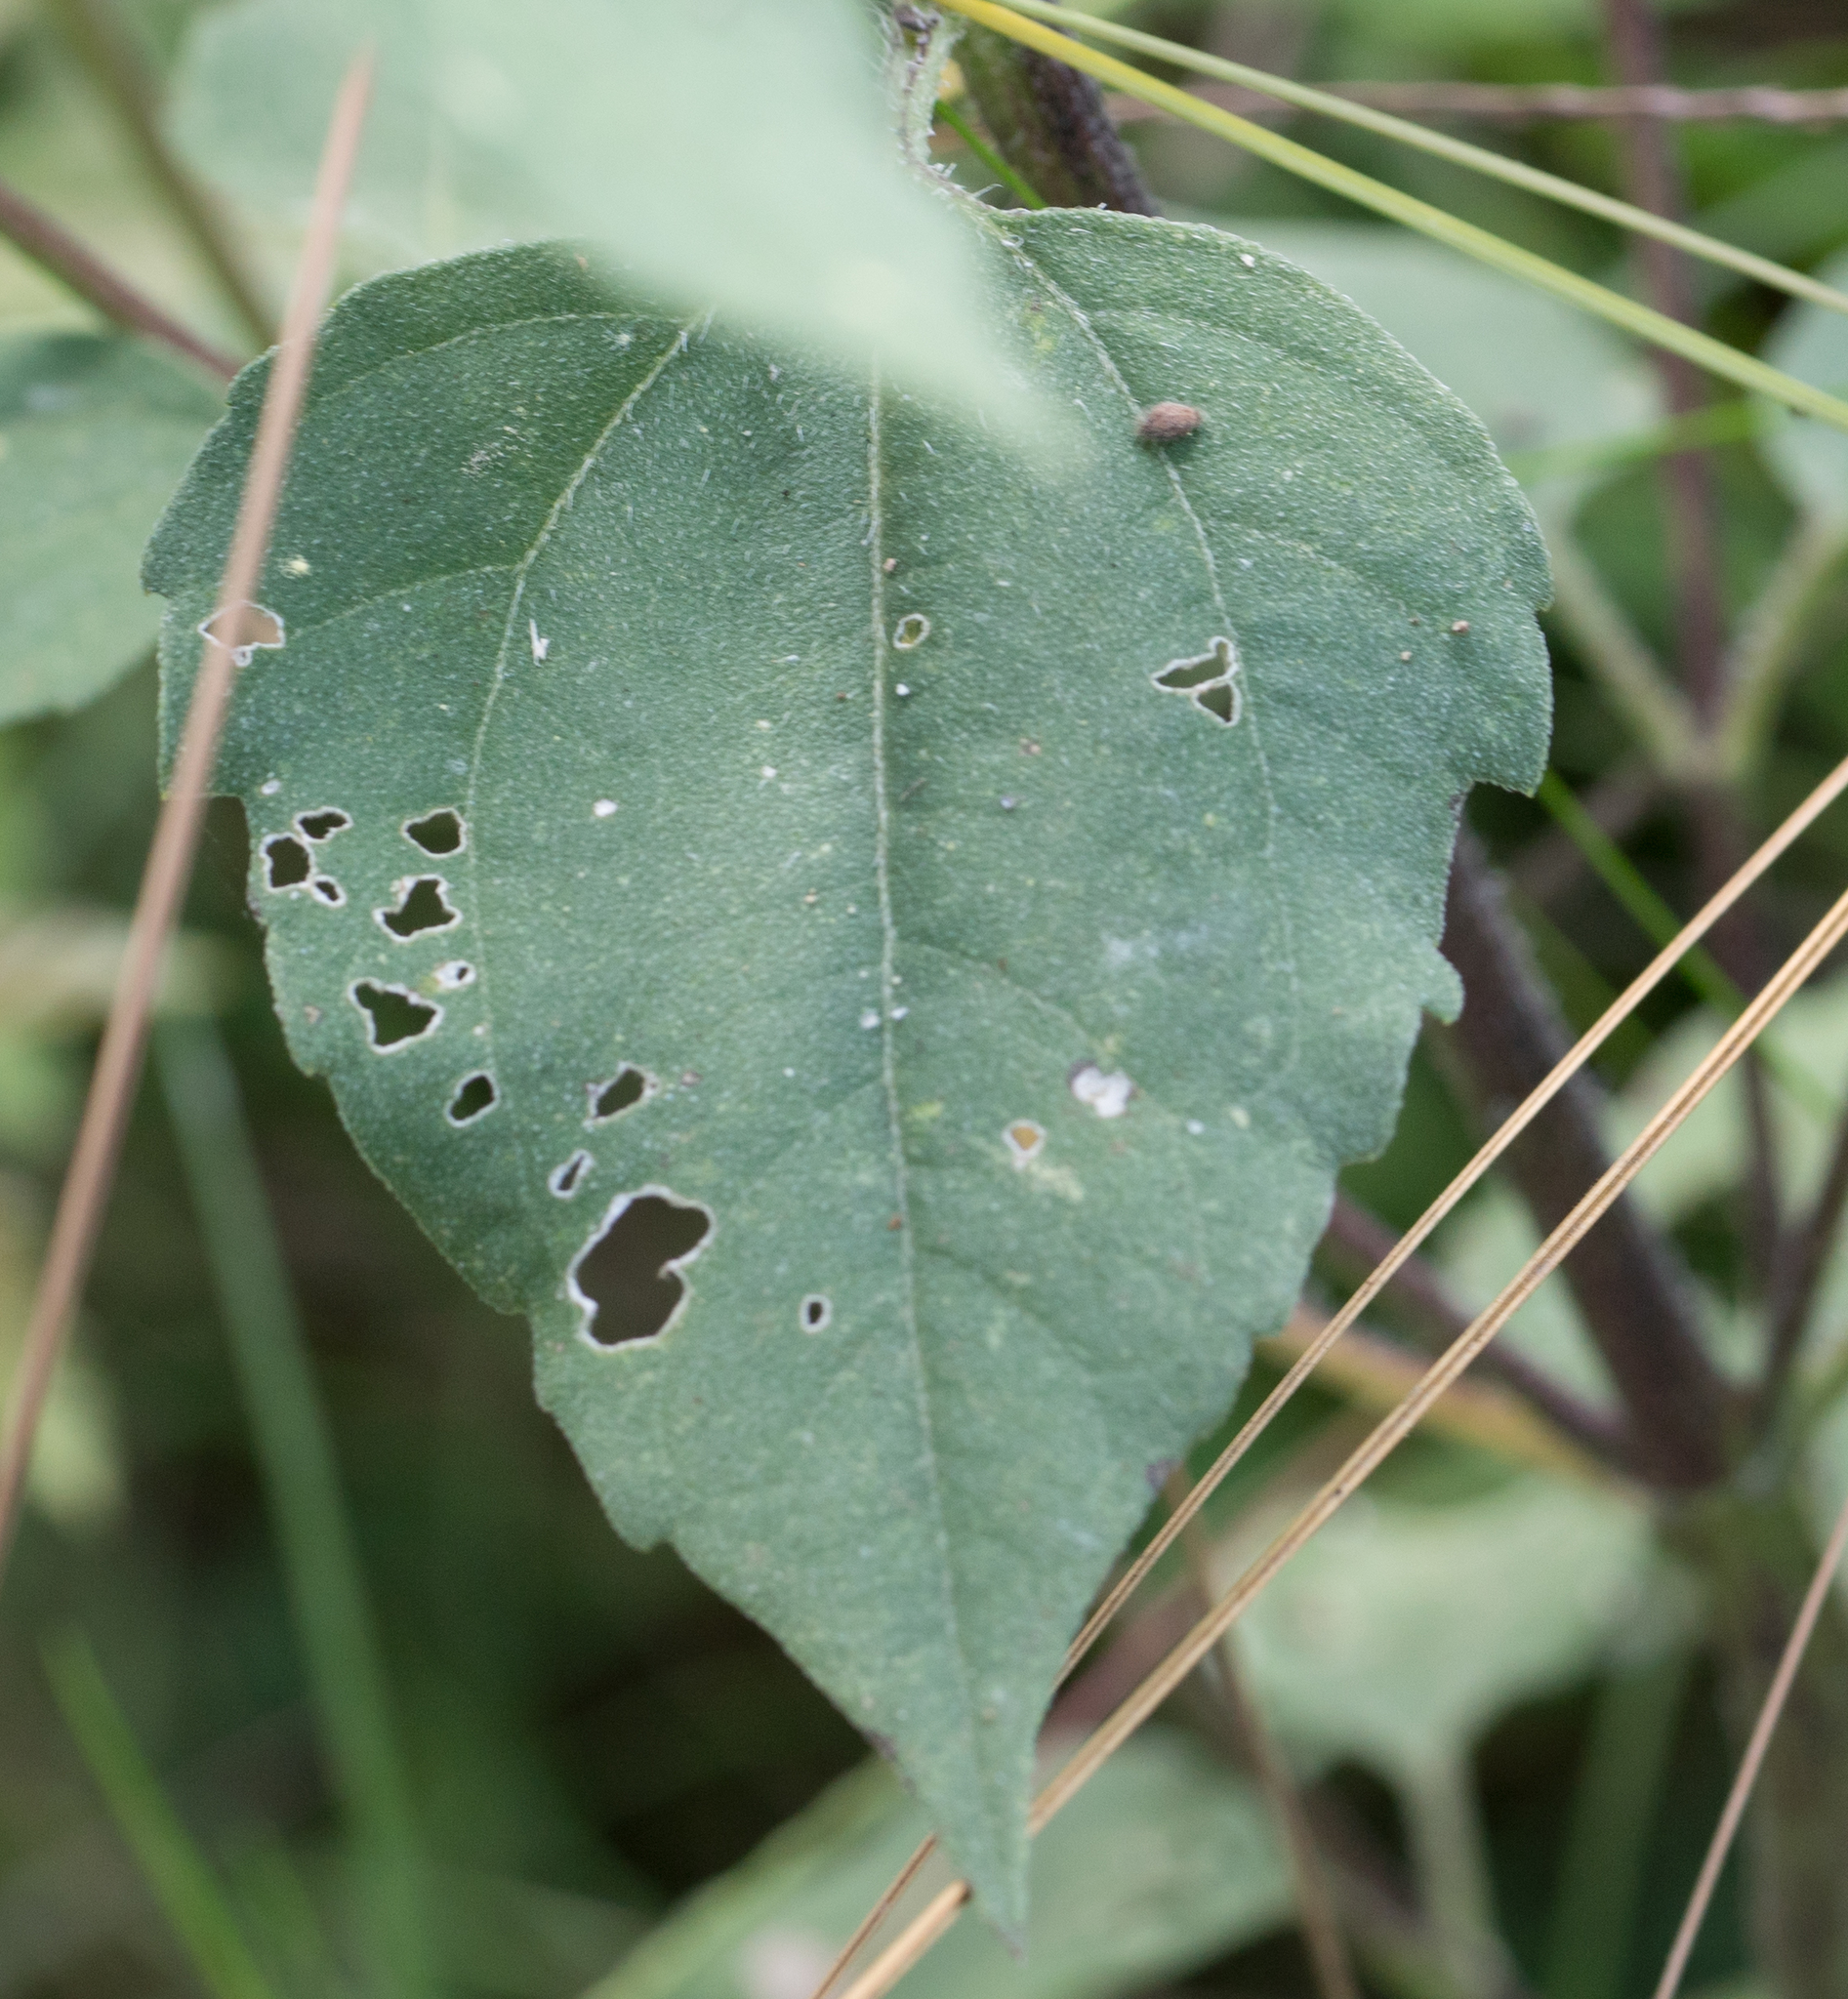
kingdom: Plantae
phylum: Tracheophyta
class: Magnoliopsida
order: Asterales
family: Asteraceae
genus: Iva
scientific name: Iva annua
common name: Marsh-elder
